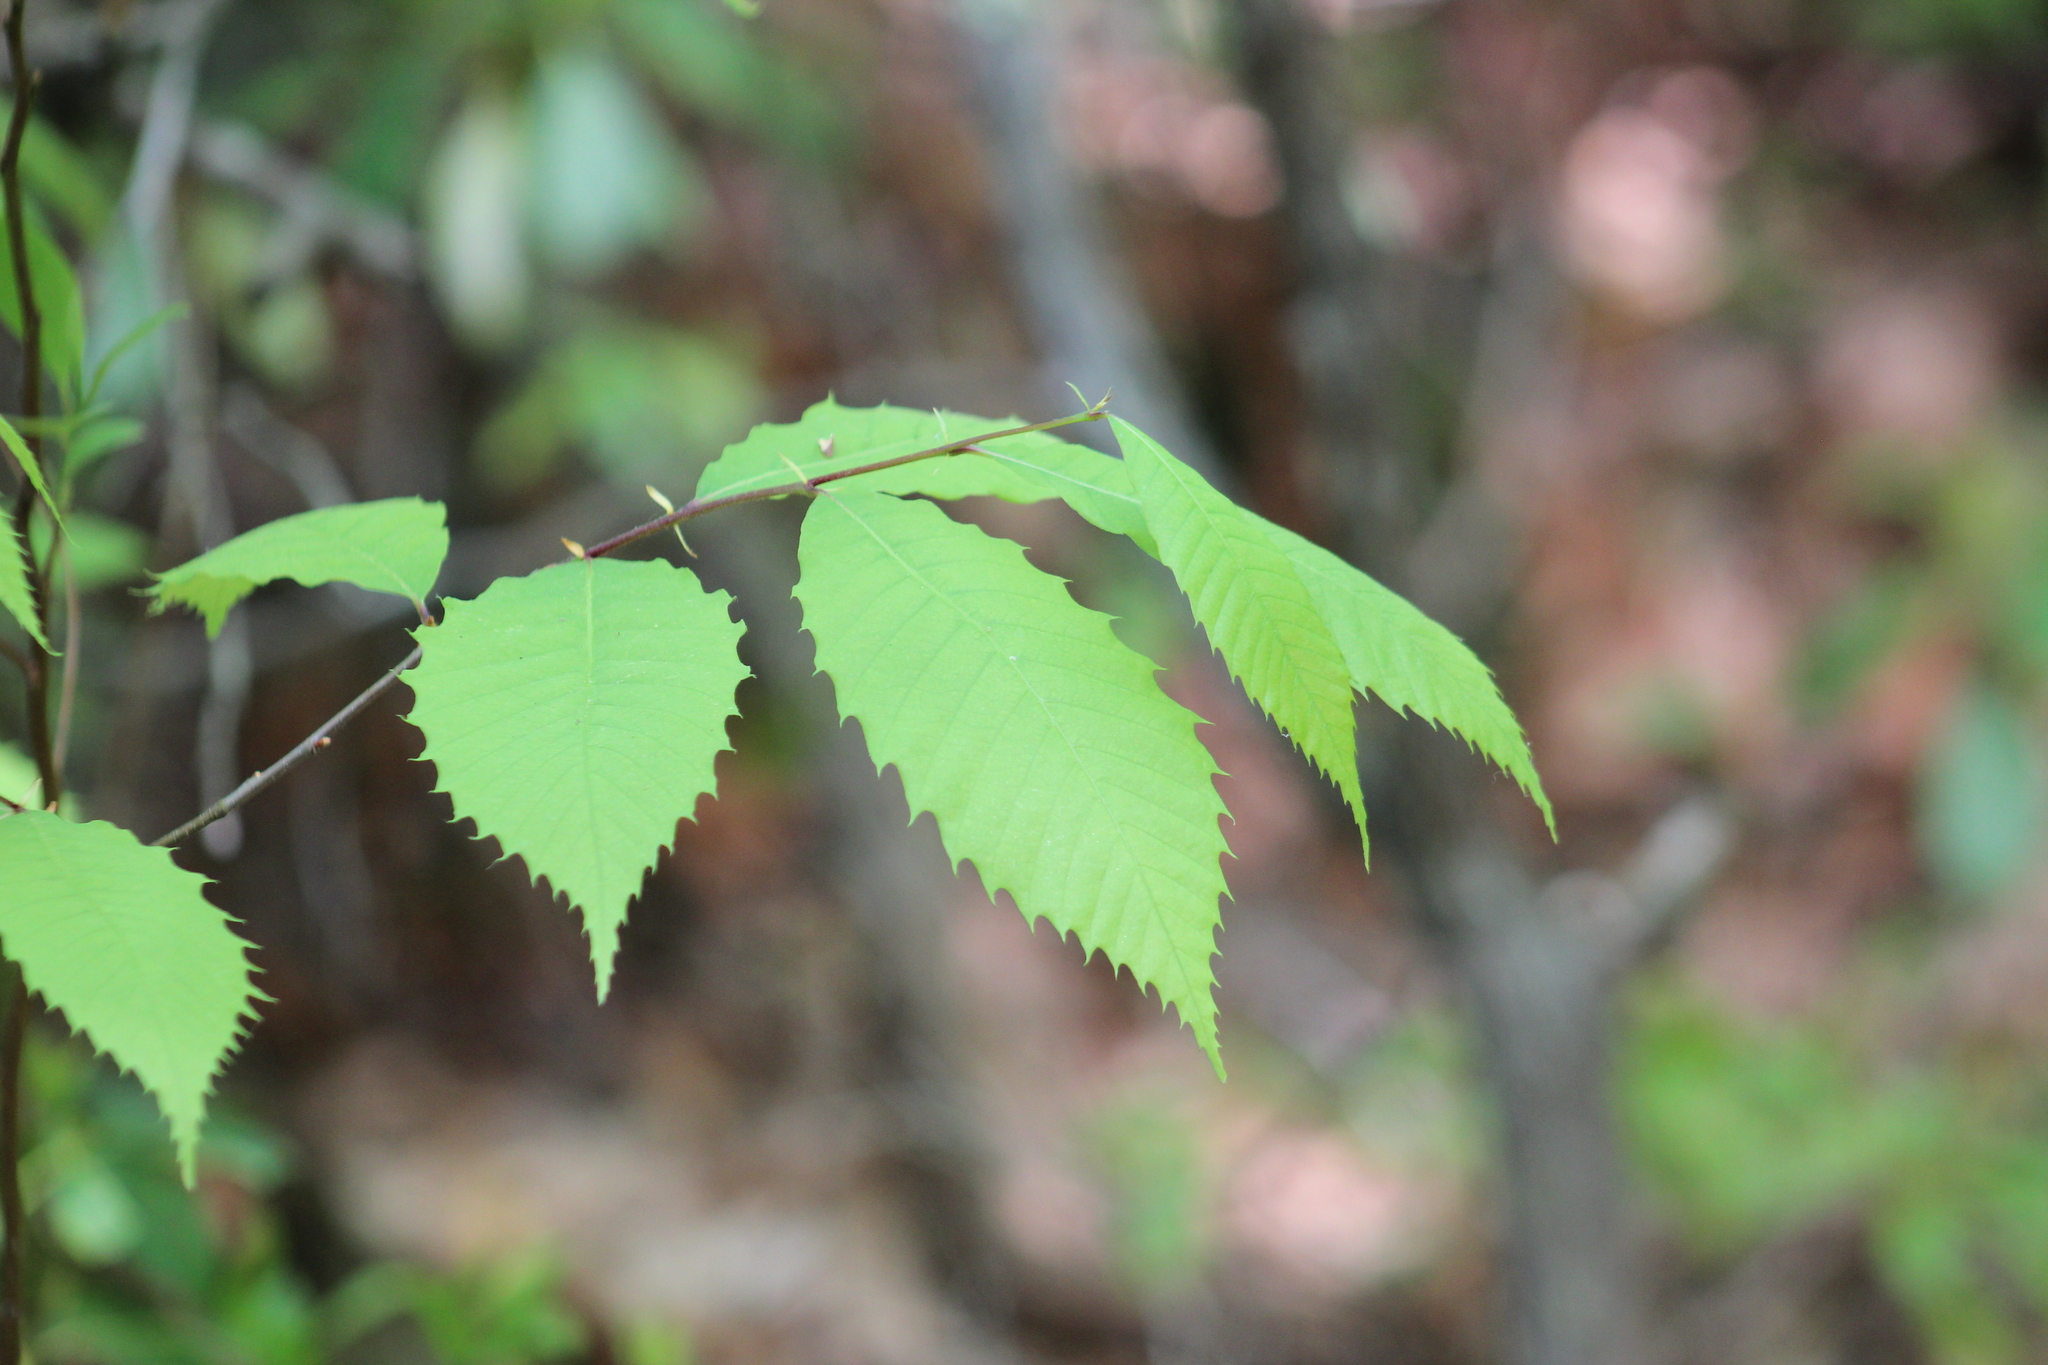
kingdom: Plantae
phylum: Tracheophyta
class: Magnoliopsida
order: Fagales
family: Fagaceae
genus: Castanea
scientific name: Castanea dentata
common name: American chestnut
